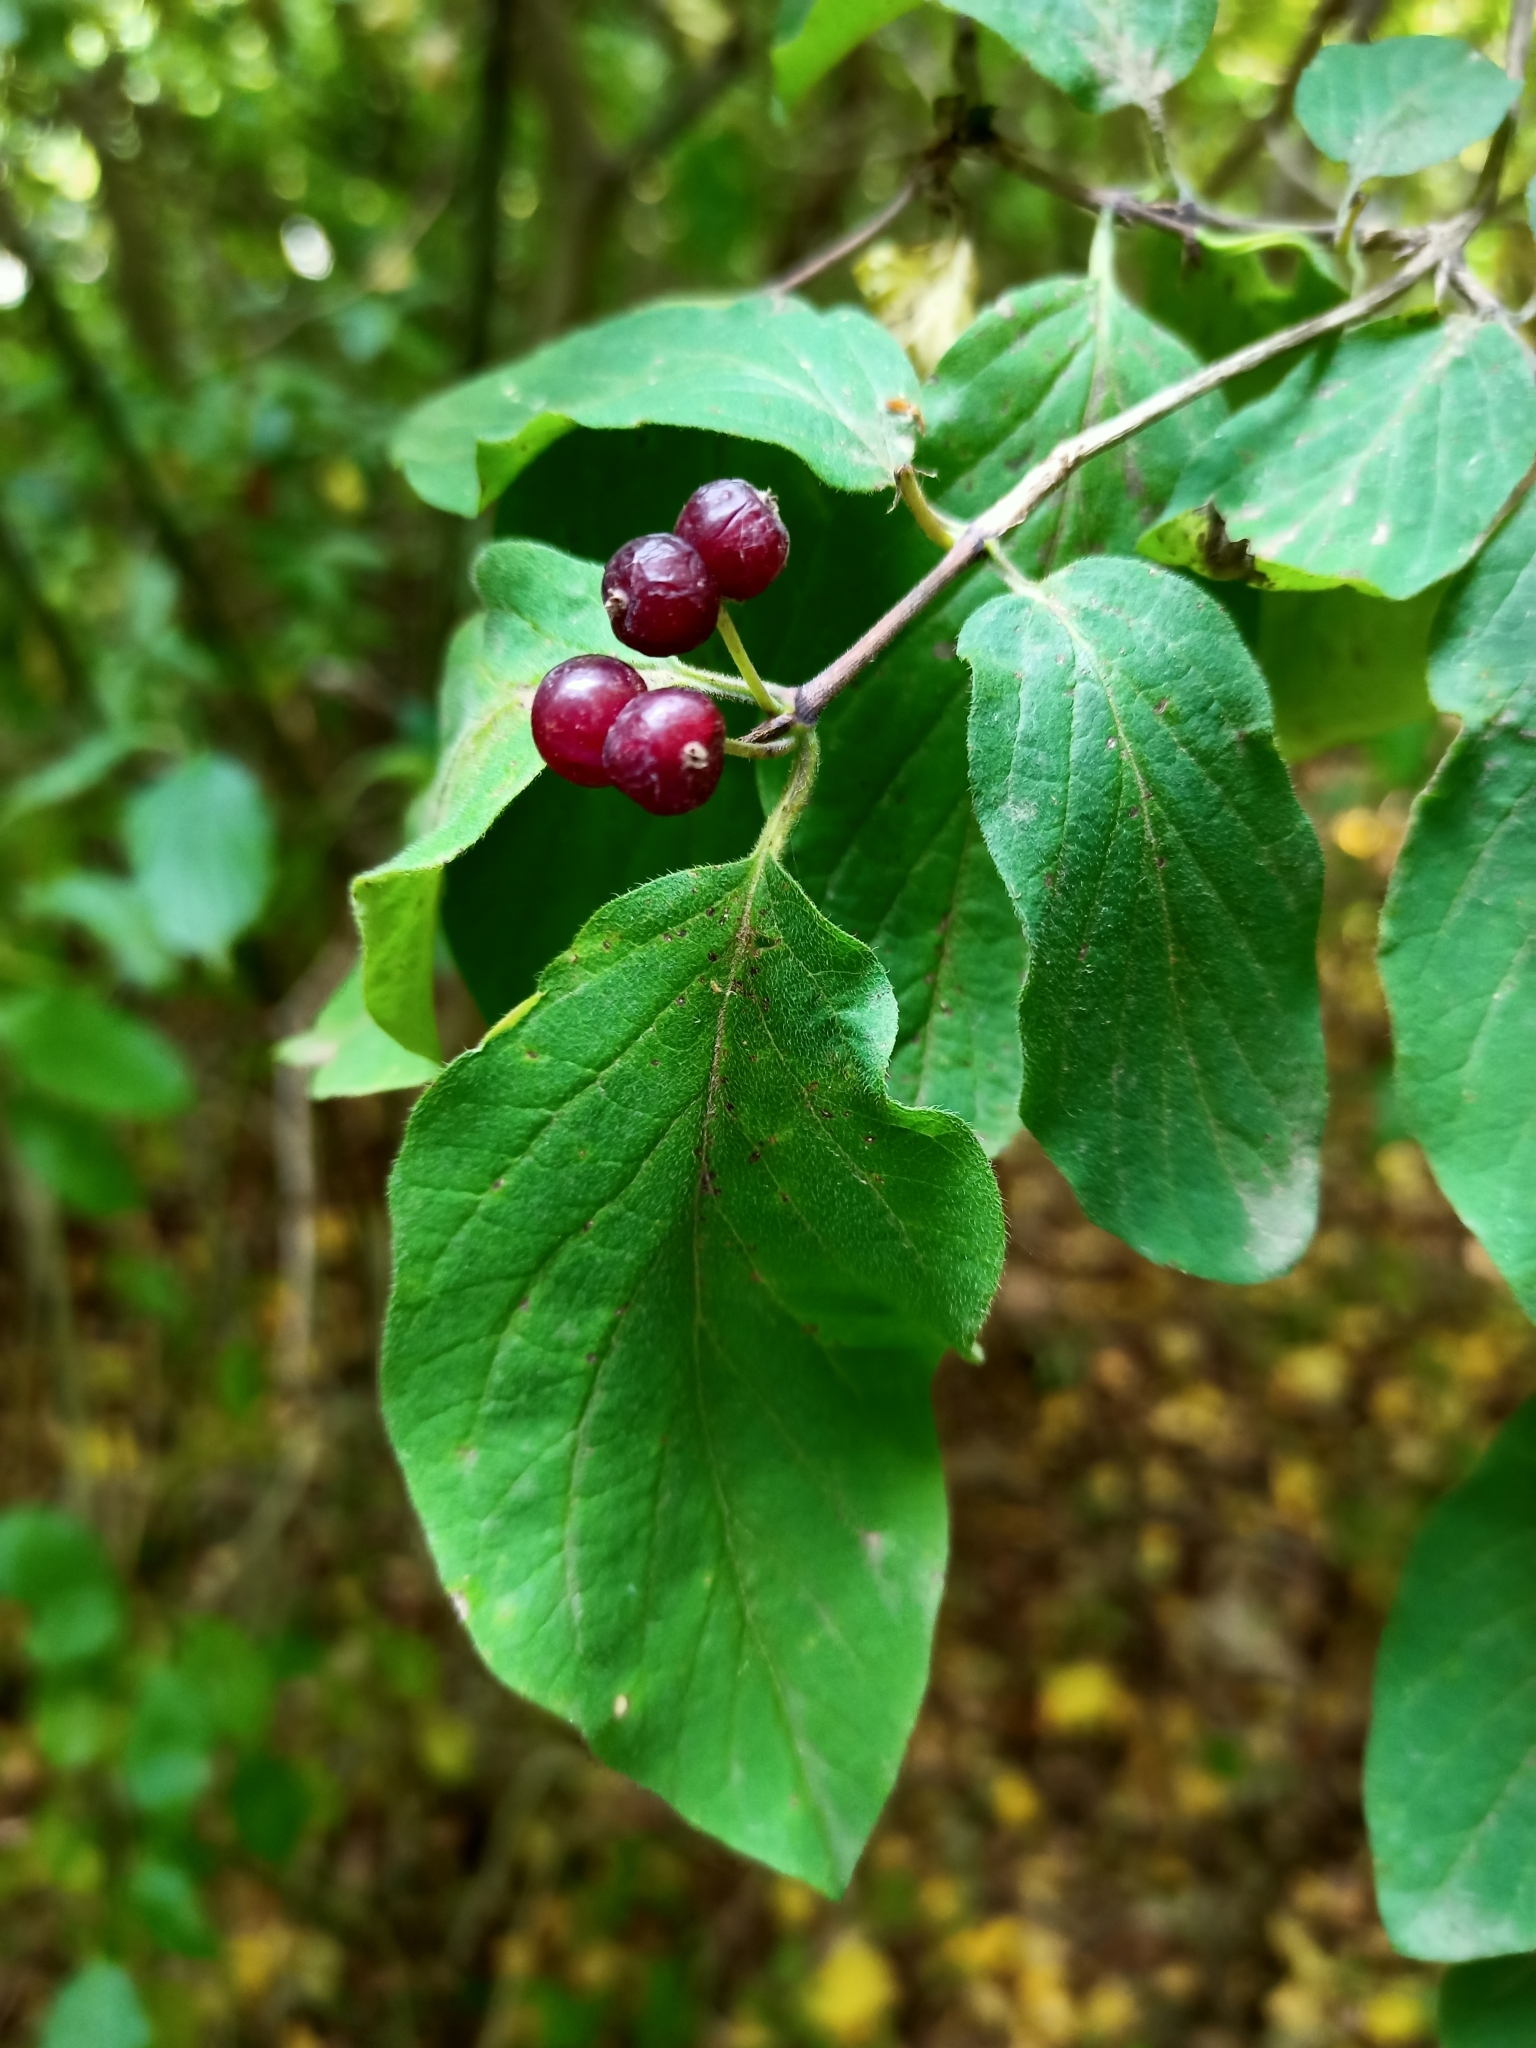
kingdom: Plantae
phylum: Tracheophyta
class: Magnoliopsida
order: Dipsacales
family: Caprifoliaceae
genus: Lonicera
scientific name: Lonicera xylosteum
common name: Fly honeysuckle
